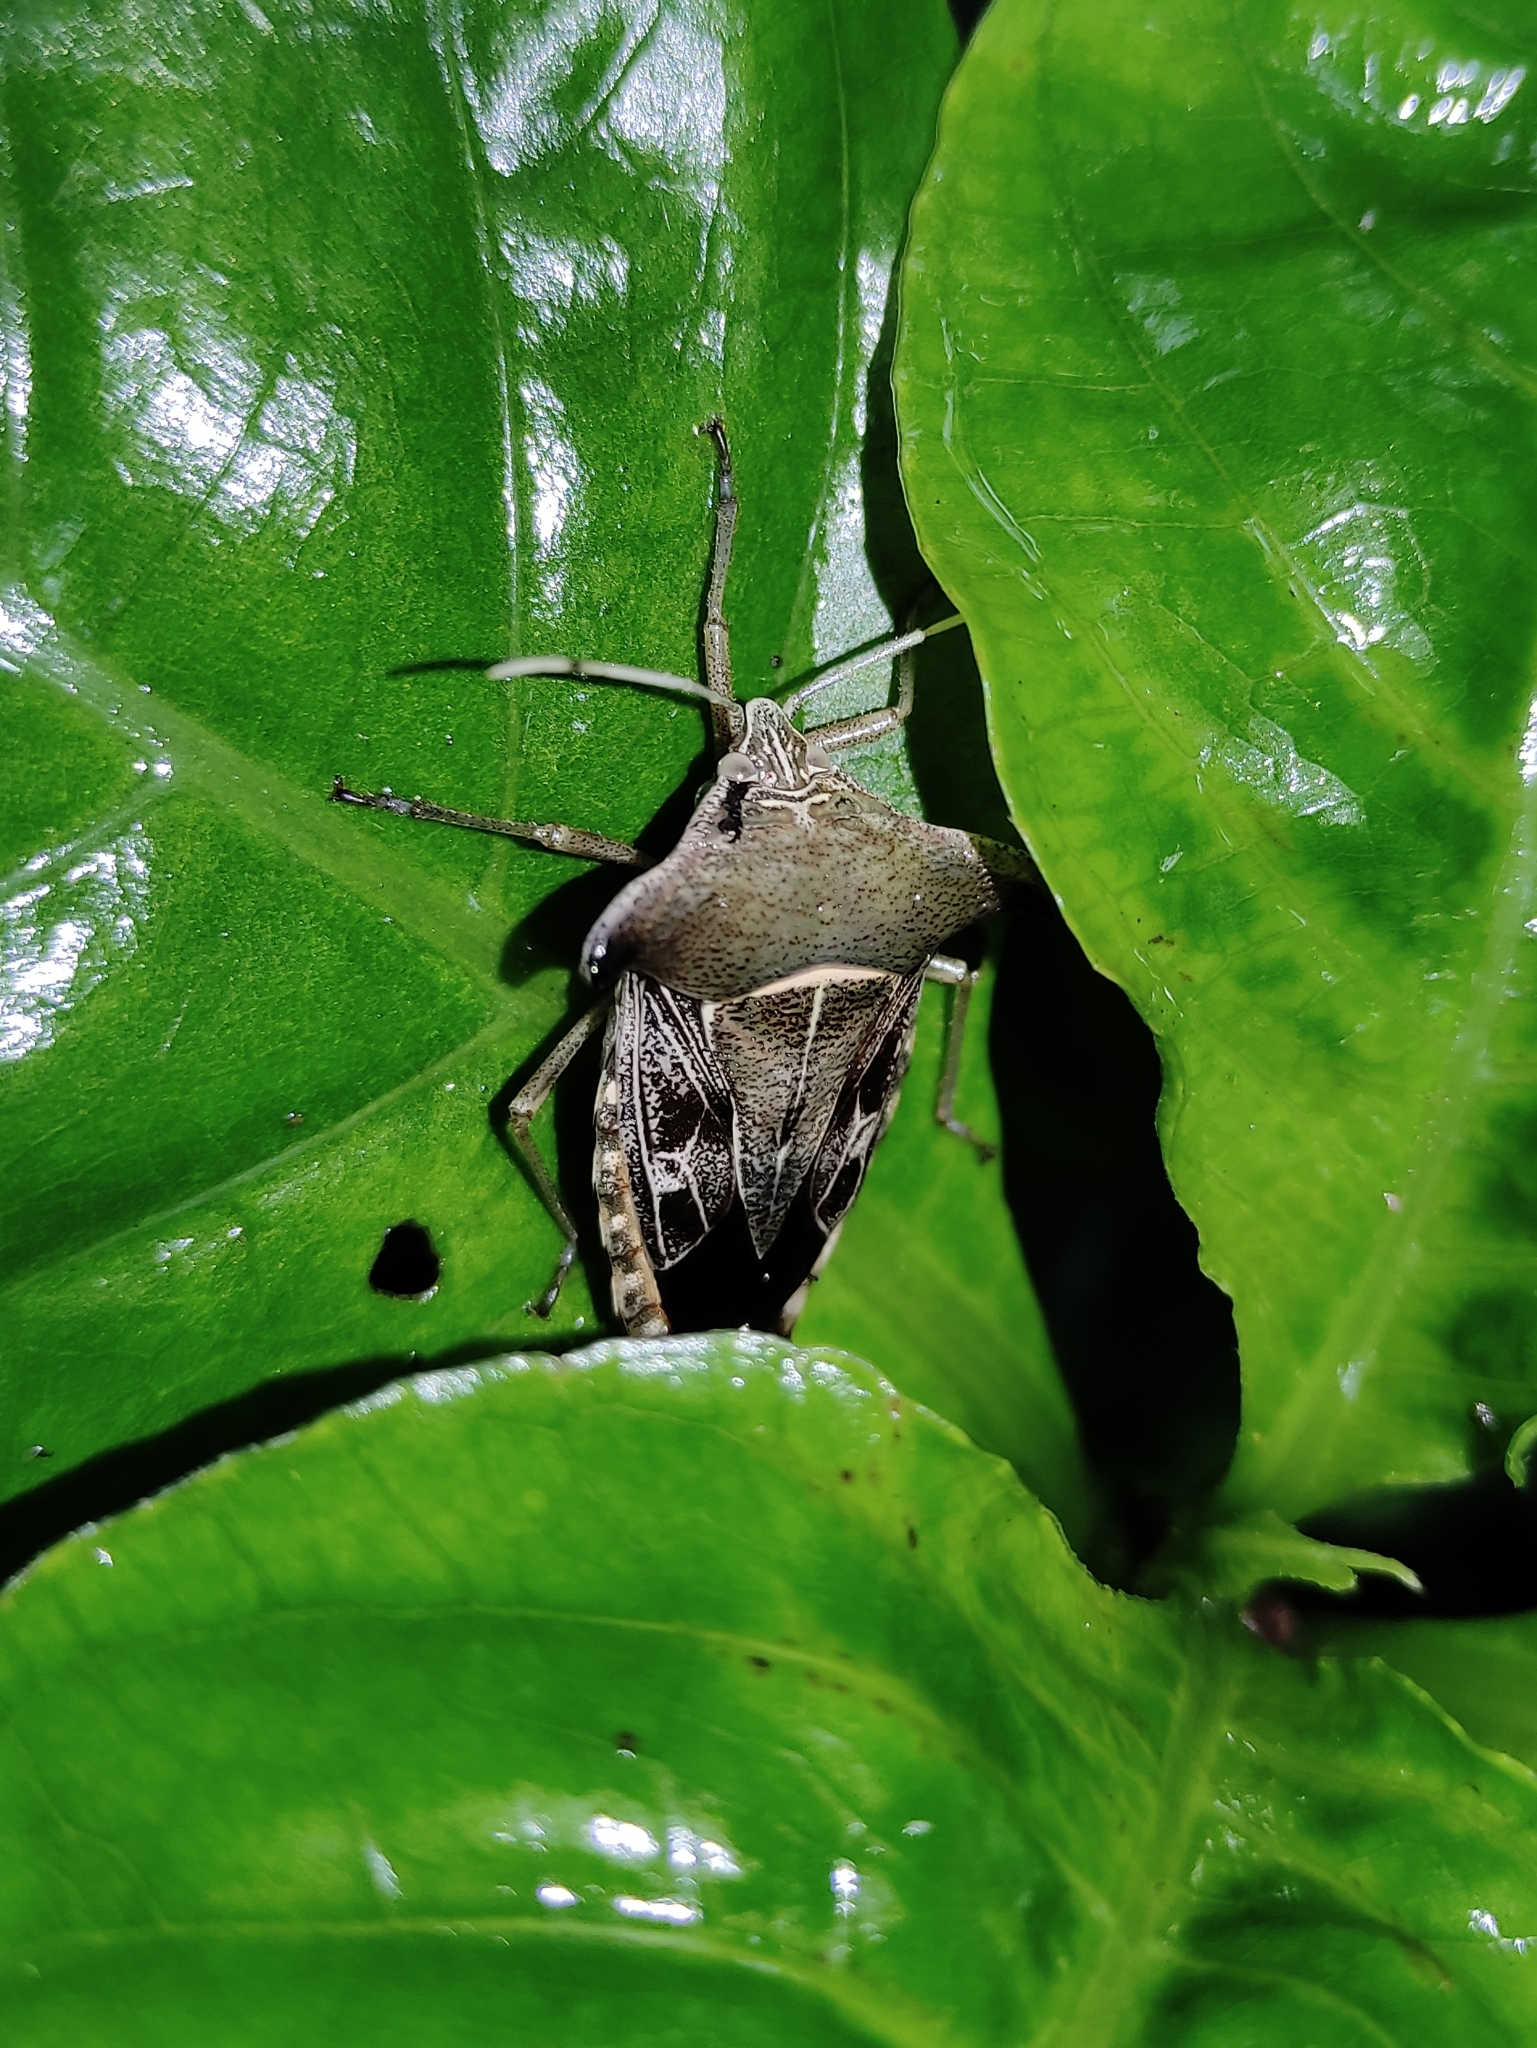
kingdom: Animalia
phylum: Arthropoda
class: Insecta
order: Hemiptera
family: Pentatomidae
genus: Edessa
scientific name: Edessa
